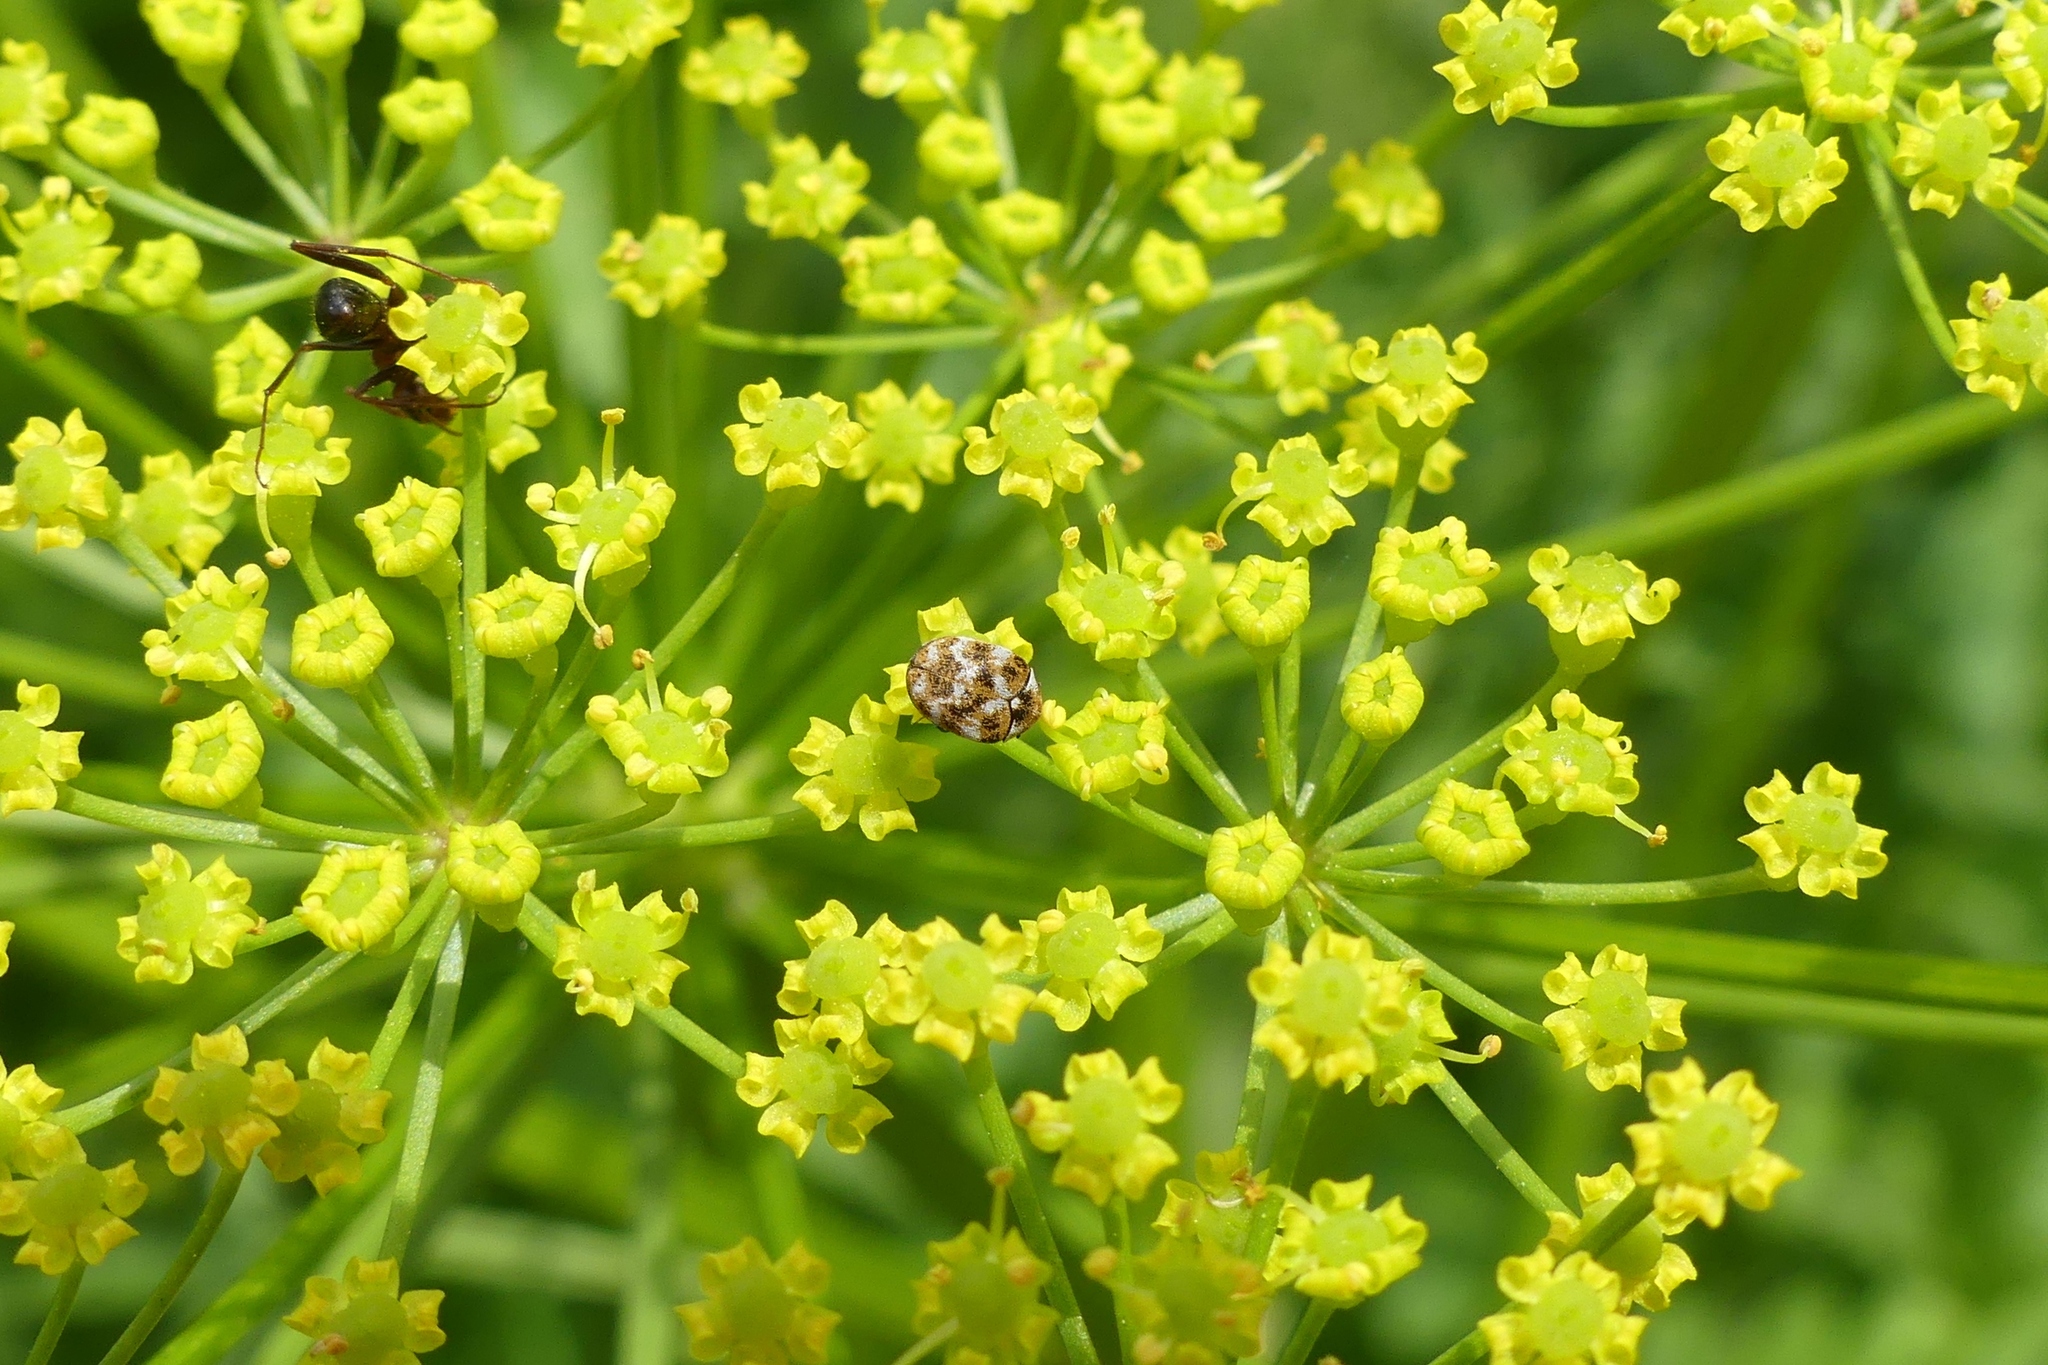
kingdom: Animalia
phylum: Arthropoda
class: Insecta
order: Coleoptera
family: Dermestidae
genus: Anthrenus
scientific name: Anthrenus verbasci
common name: Varied carpet beetle
